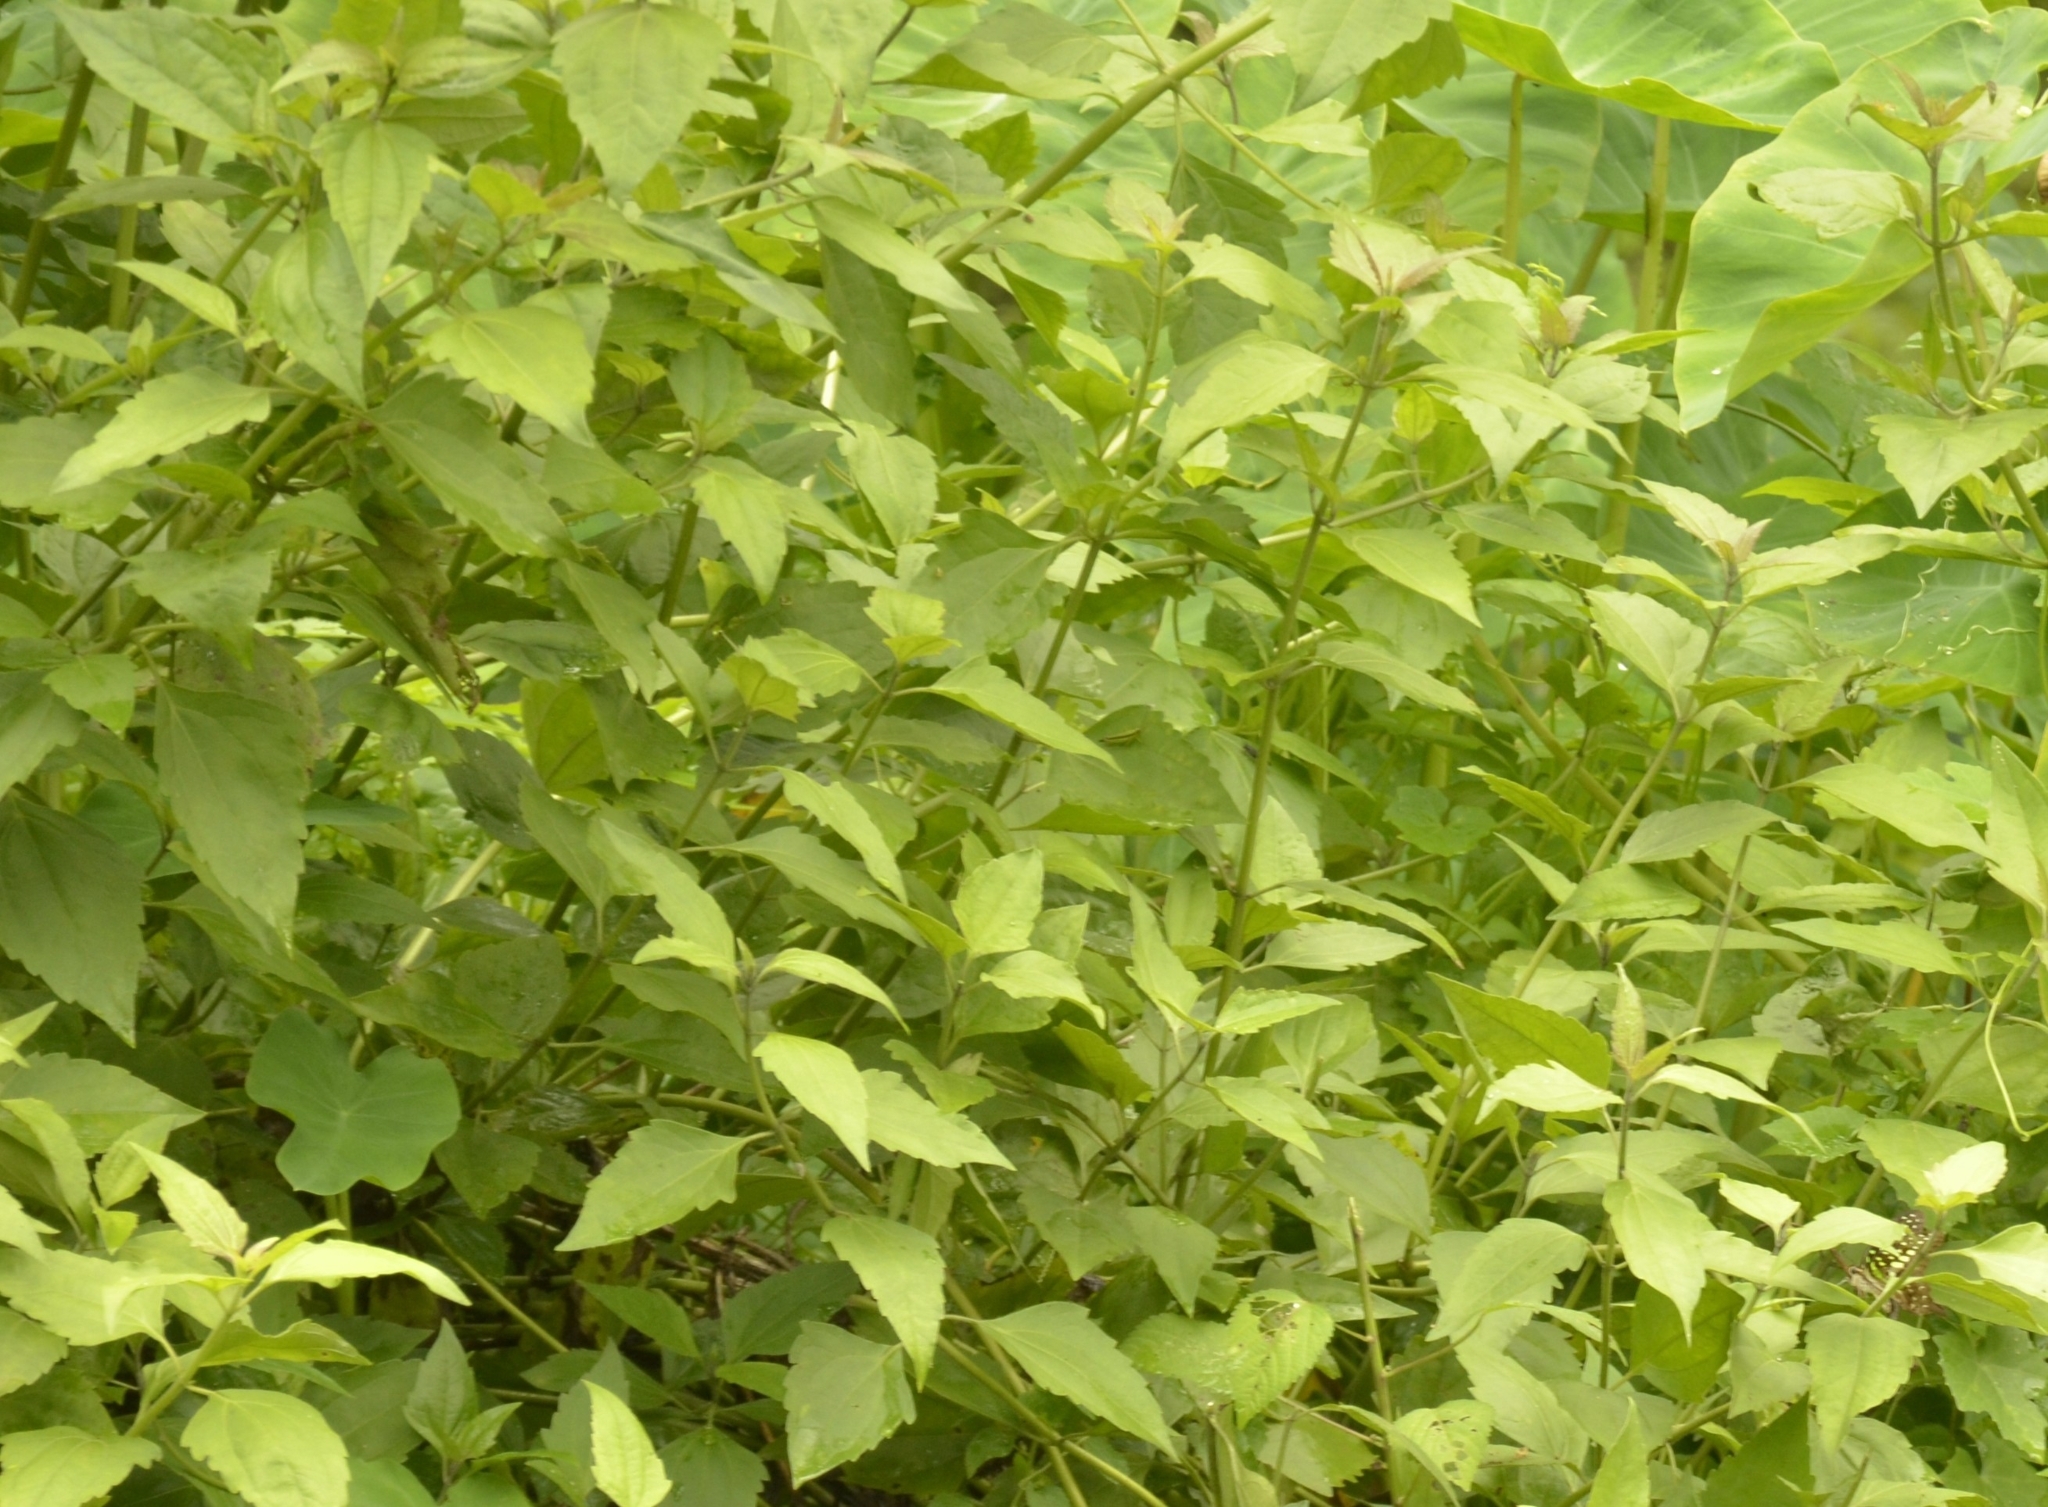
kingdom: Plantae
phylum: Tracheophyta
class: Magnoliopsida
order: Asterales
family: Asteraceae
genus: Chromolaena
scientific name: Chromolaena odorata
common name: Siamweed
